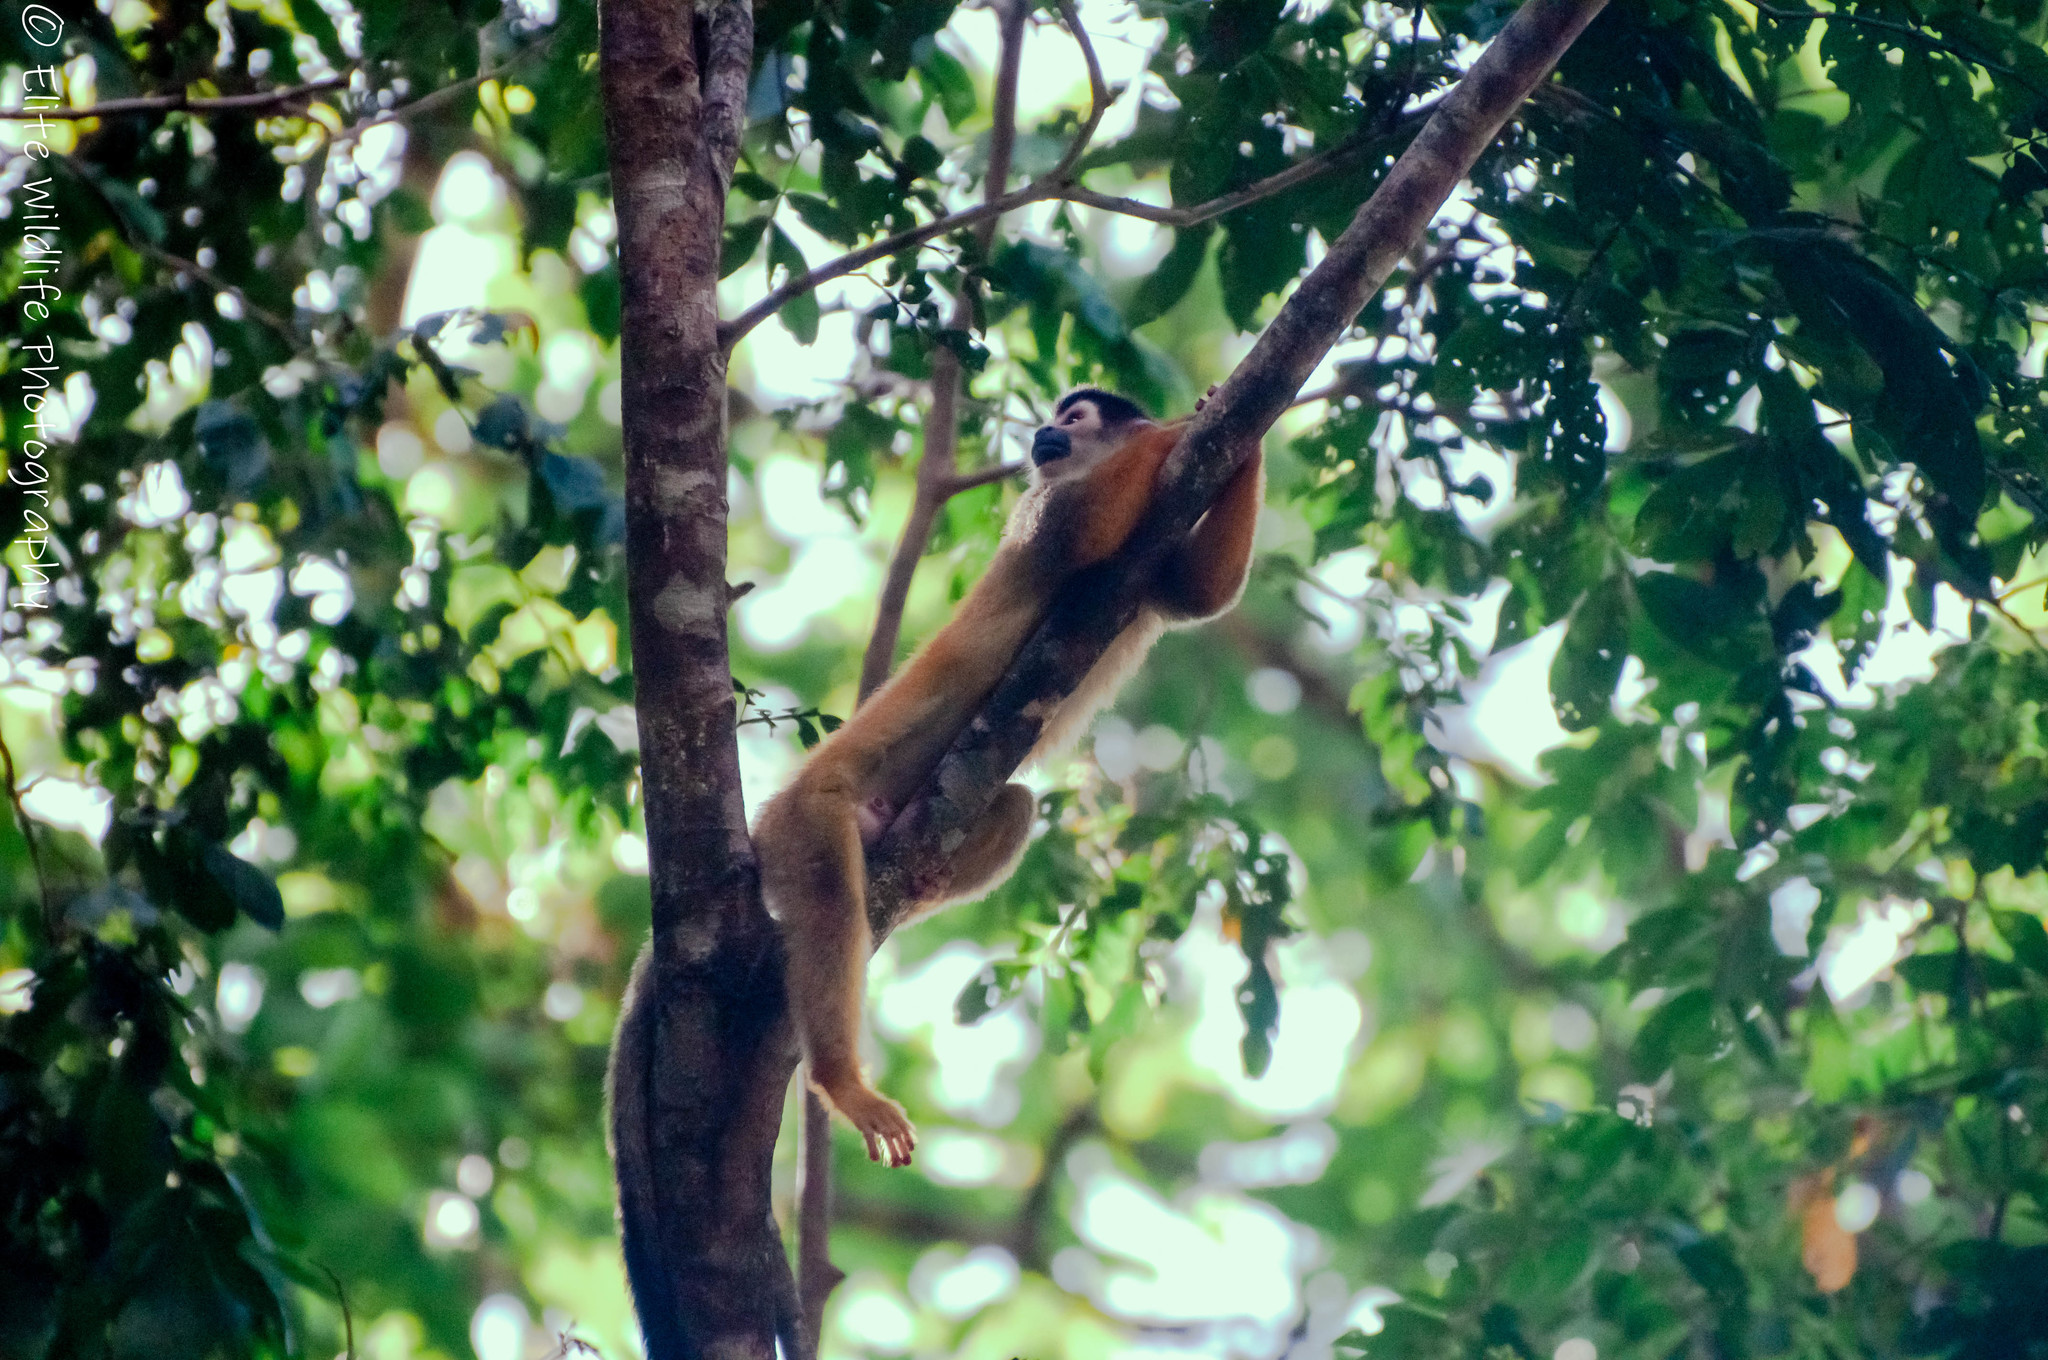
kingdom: Animalia
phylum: Chordata
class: Mammalia
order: Primates
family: Cebidae
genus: Saimiri
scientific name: Saimiri oerstedii
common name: Central american squirrel monkey
